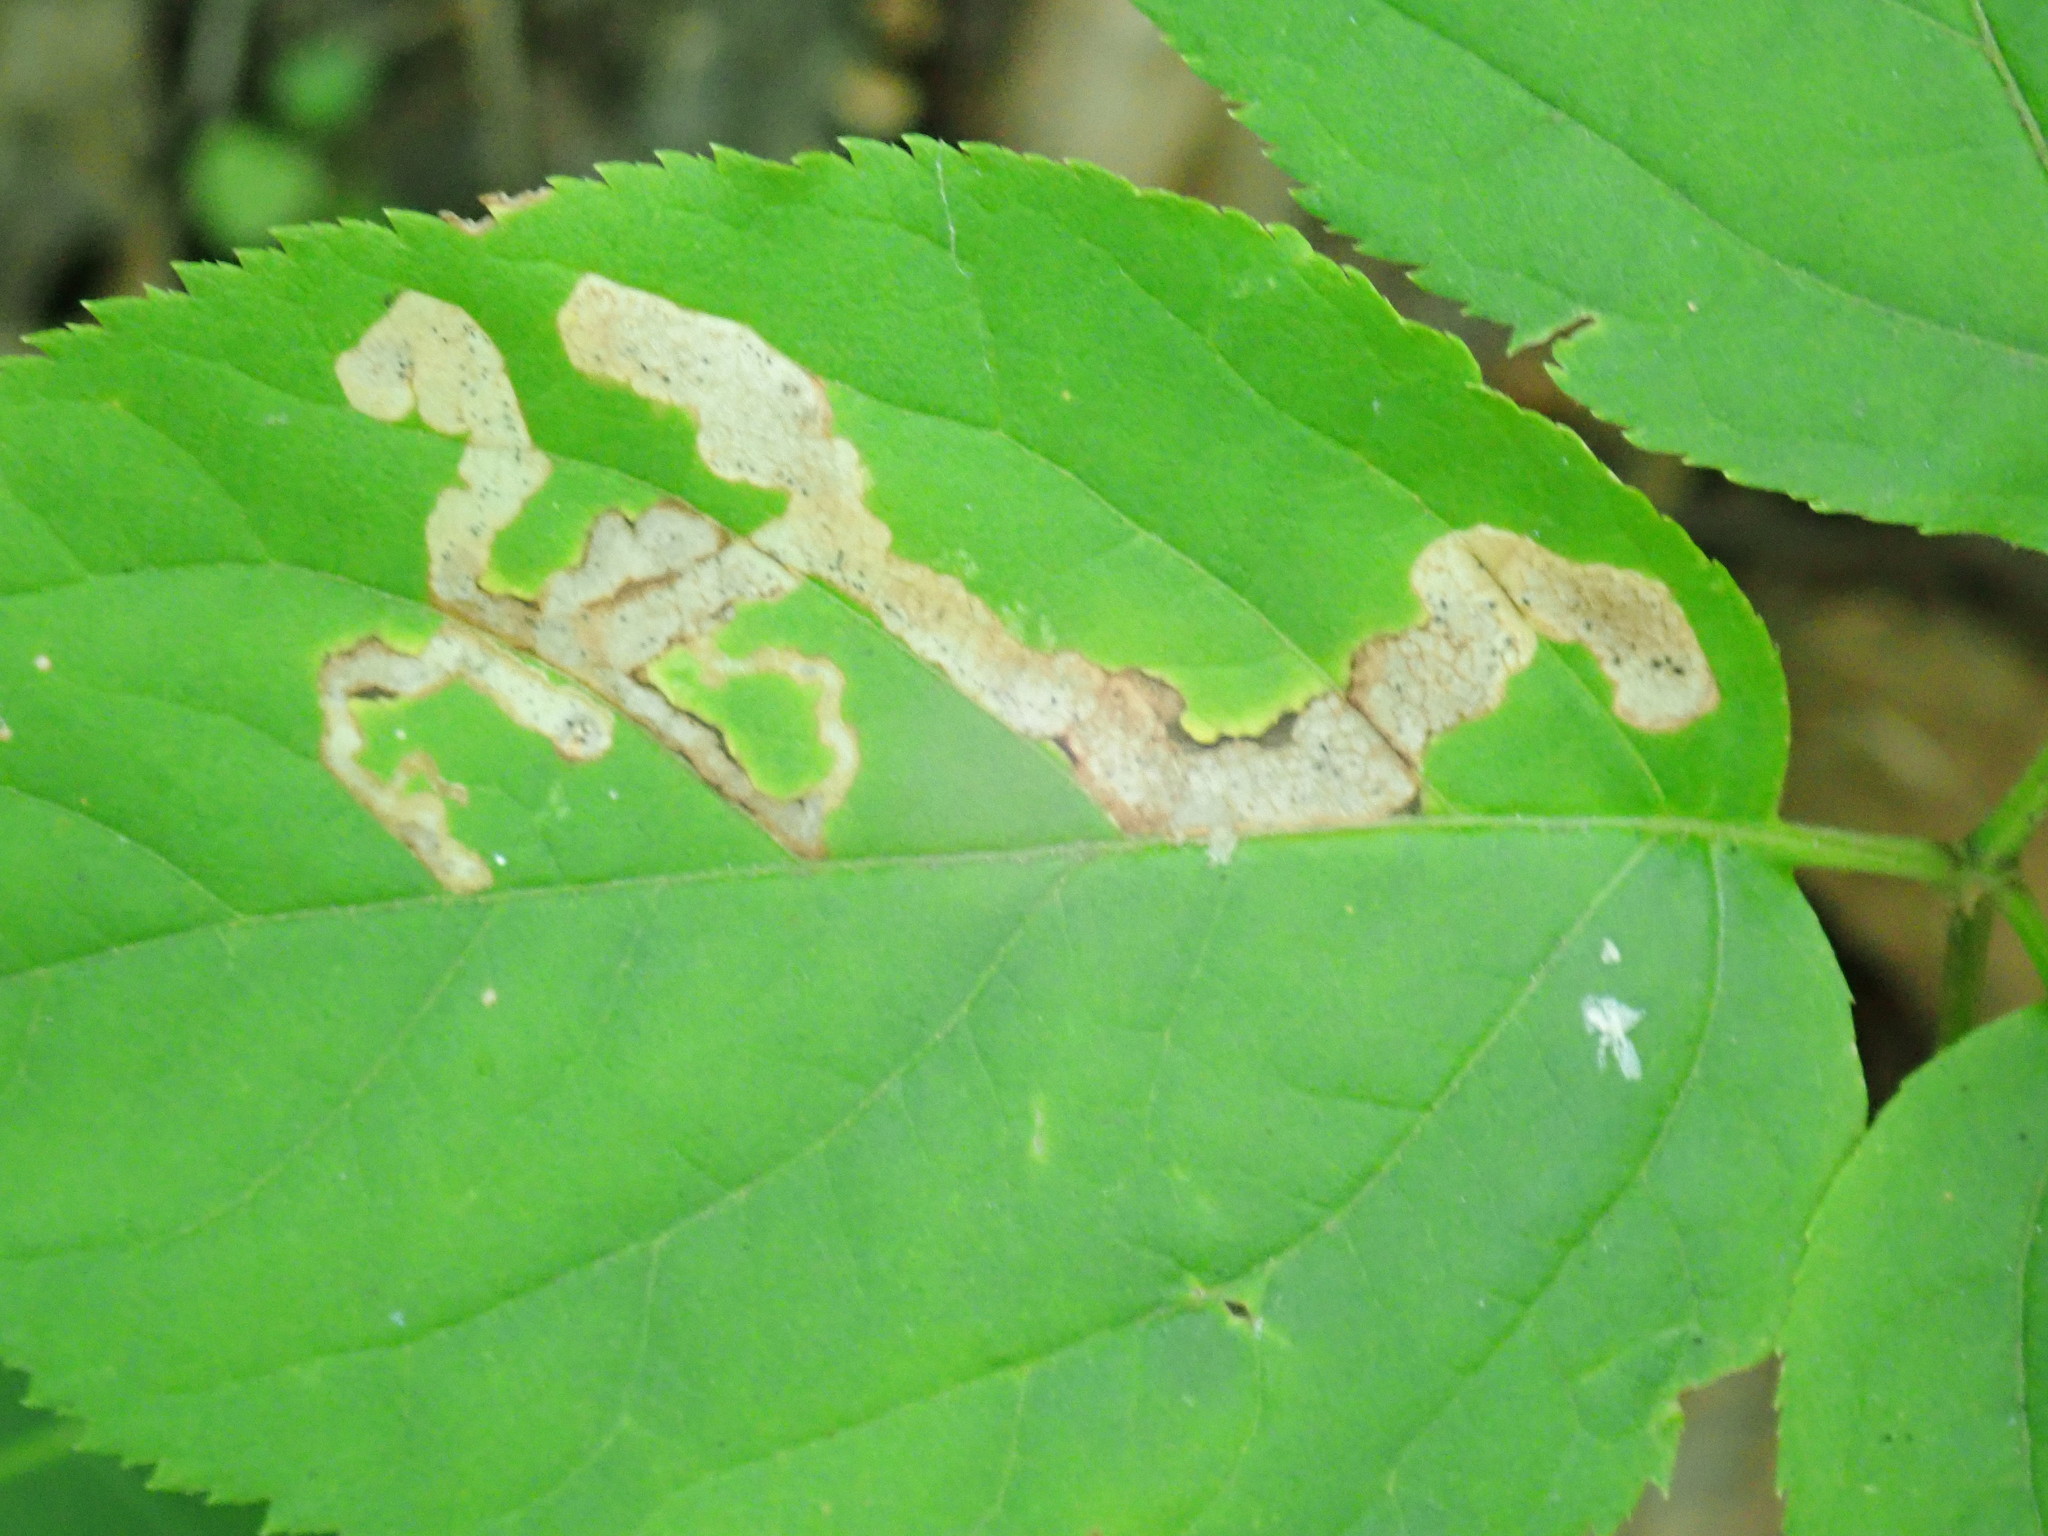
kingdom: Animalia
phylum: Arthropoda
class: Insecta
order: Diptera
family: Agromyzidae
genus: Phytomyza
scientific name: Phytomyza aralivora
